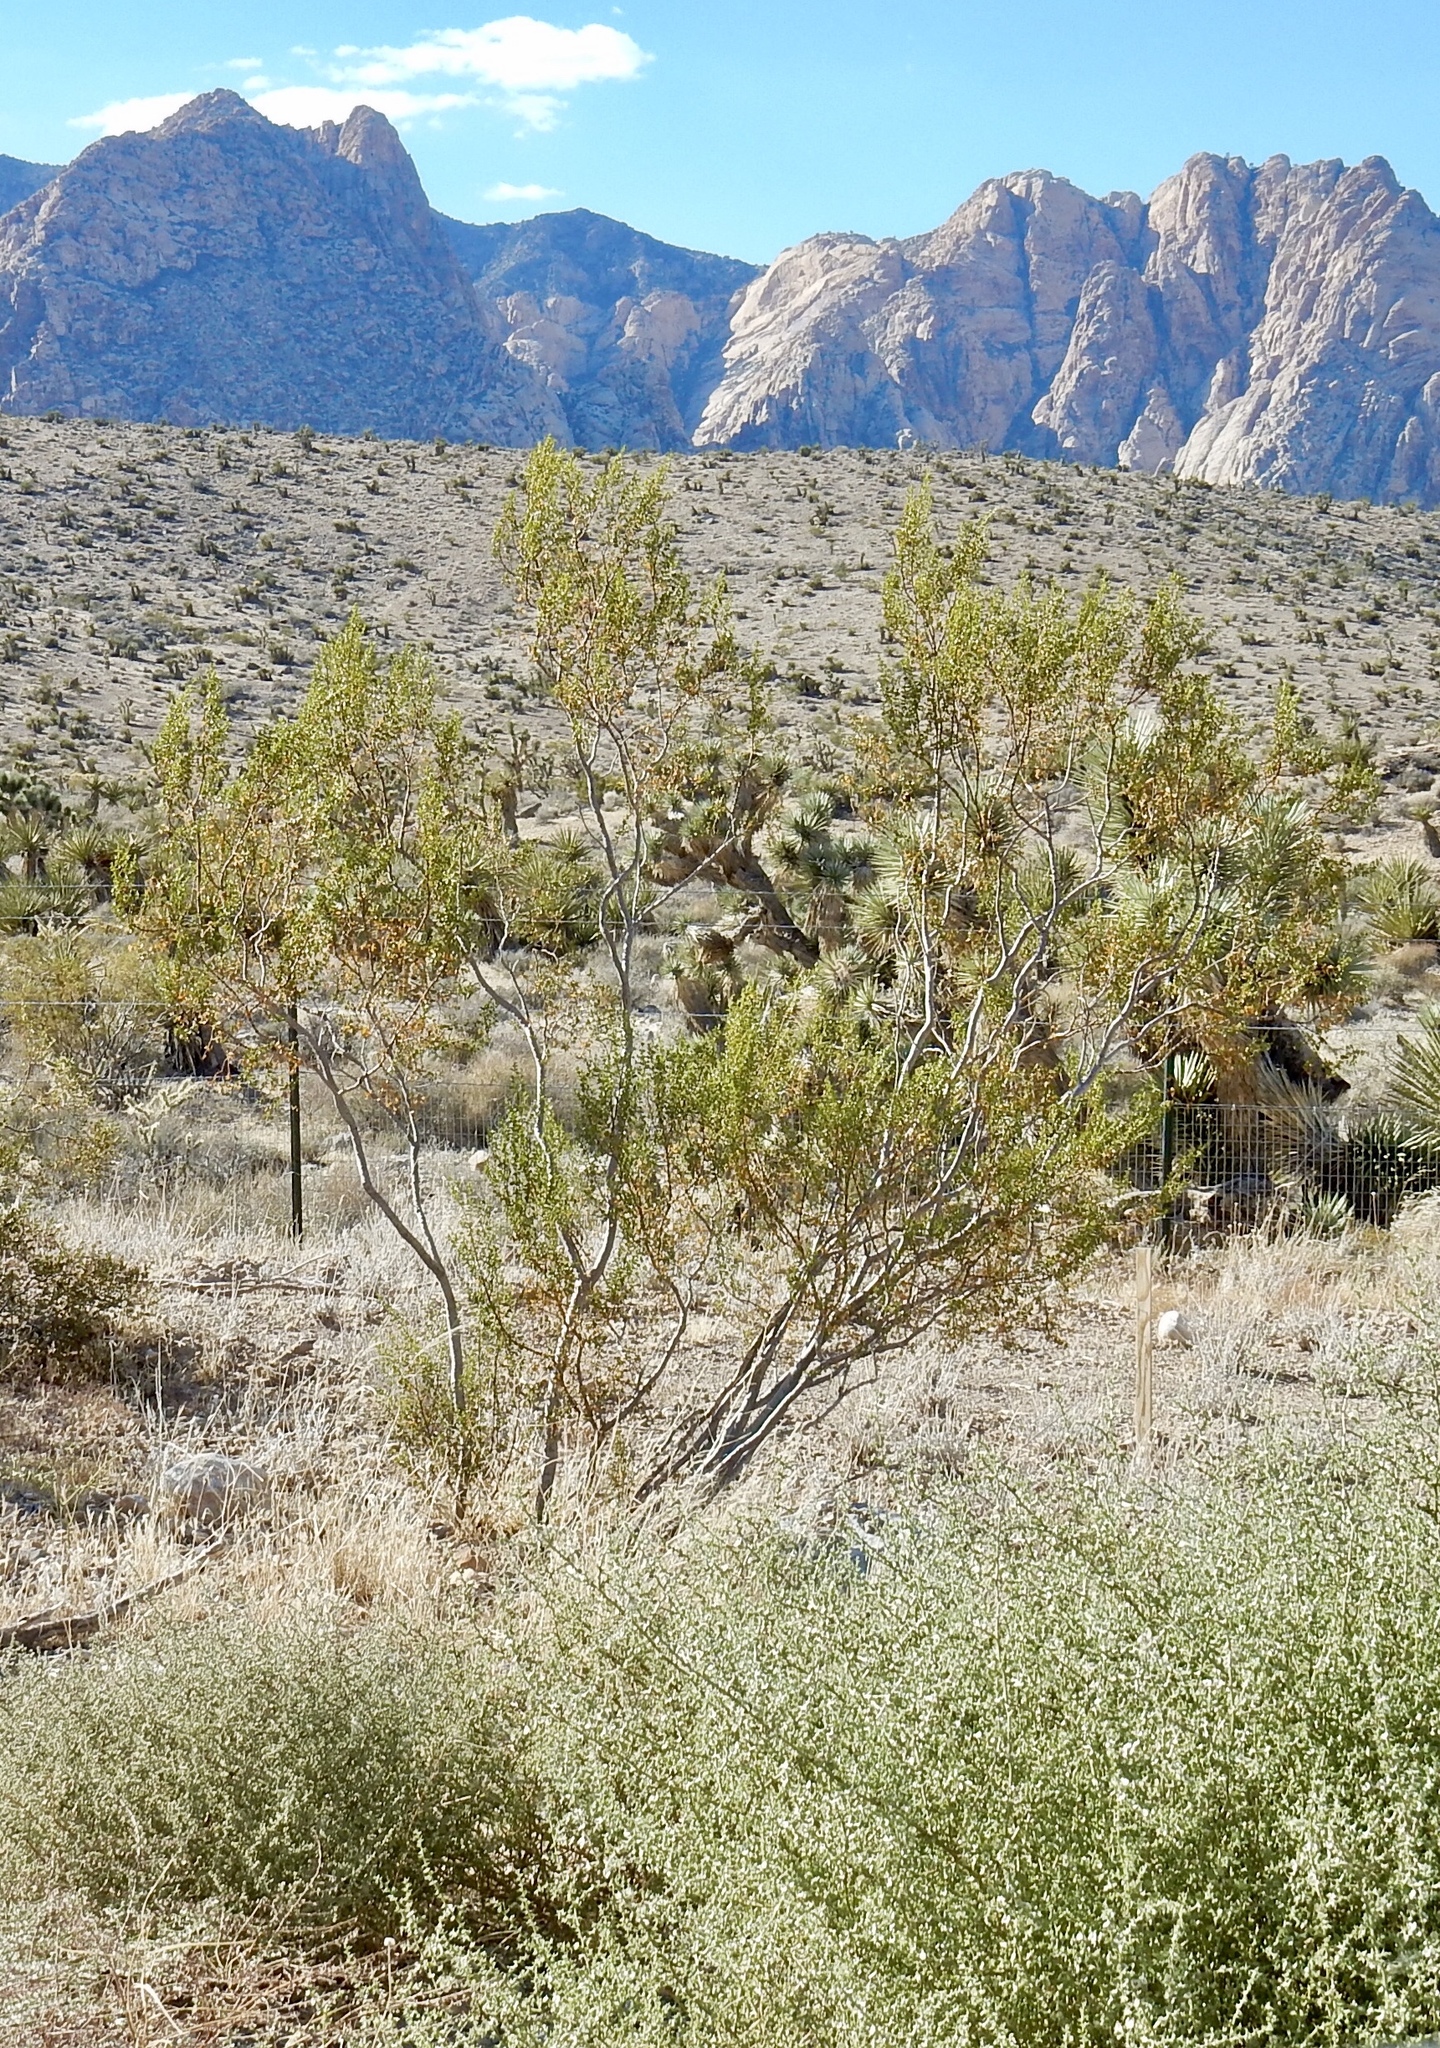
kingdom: Plantae
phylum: Tracheophyta
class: Magnoliopsida
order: Zygophyllales
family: Zygophyllaceae
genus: Larrea
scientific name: Larrea tridentata
